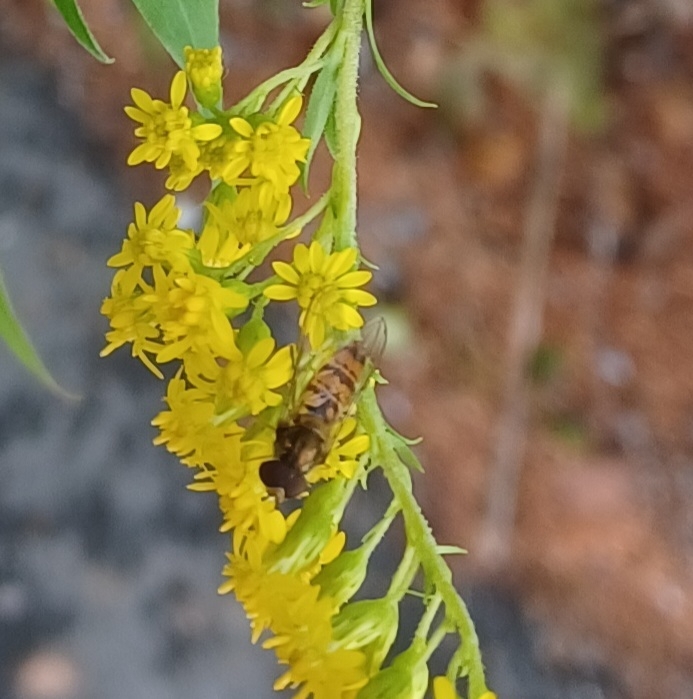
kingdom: Animalia
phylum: Arthropoda
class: Insecta
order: Diptera
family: Syrphidae
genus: Episyrphus
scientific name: Episyrphus balteatus
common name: Marmalade hoverfly
